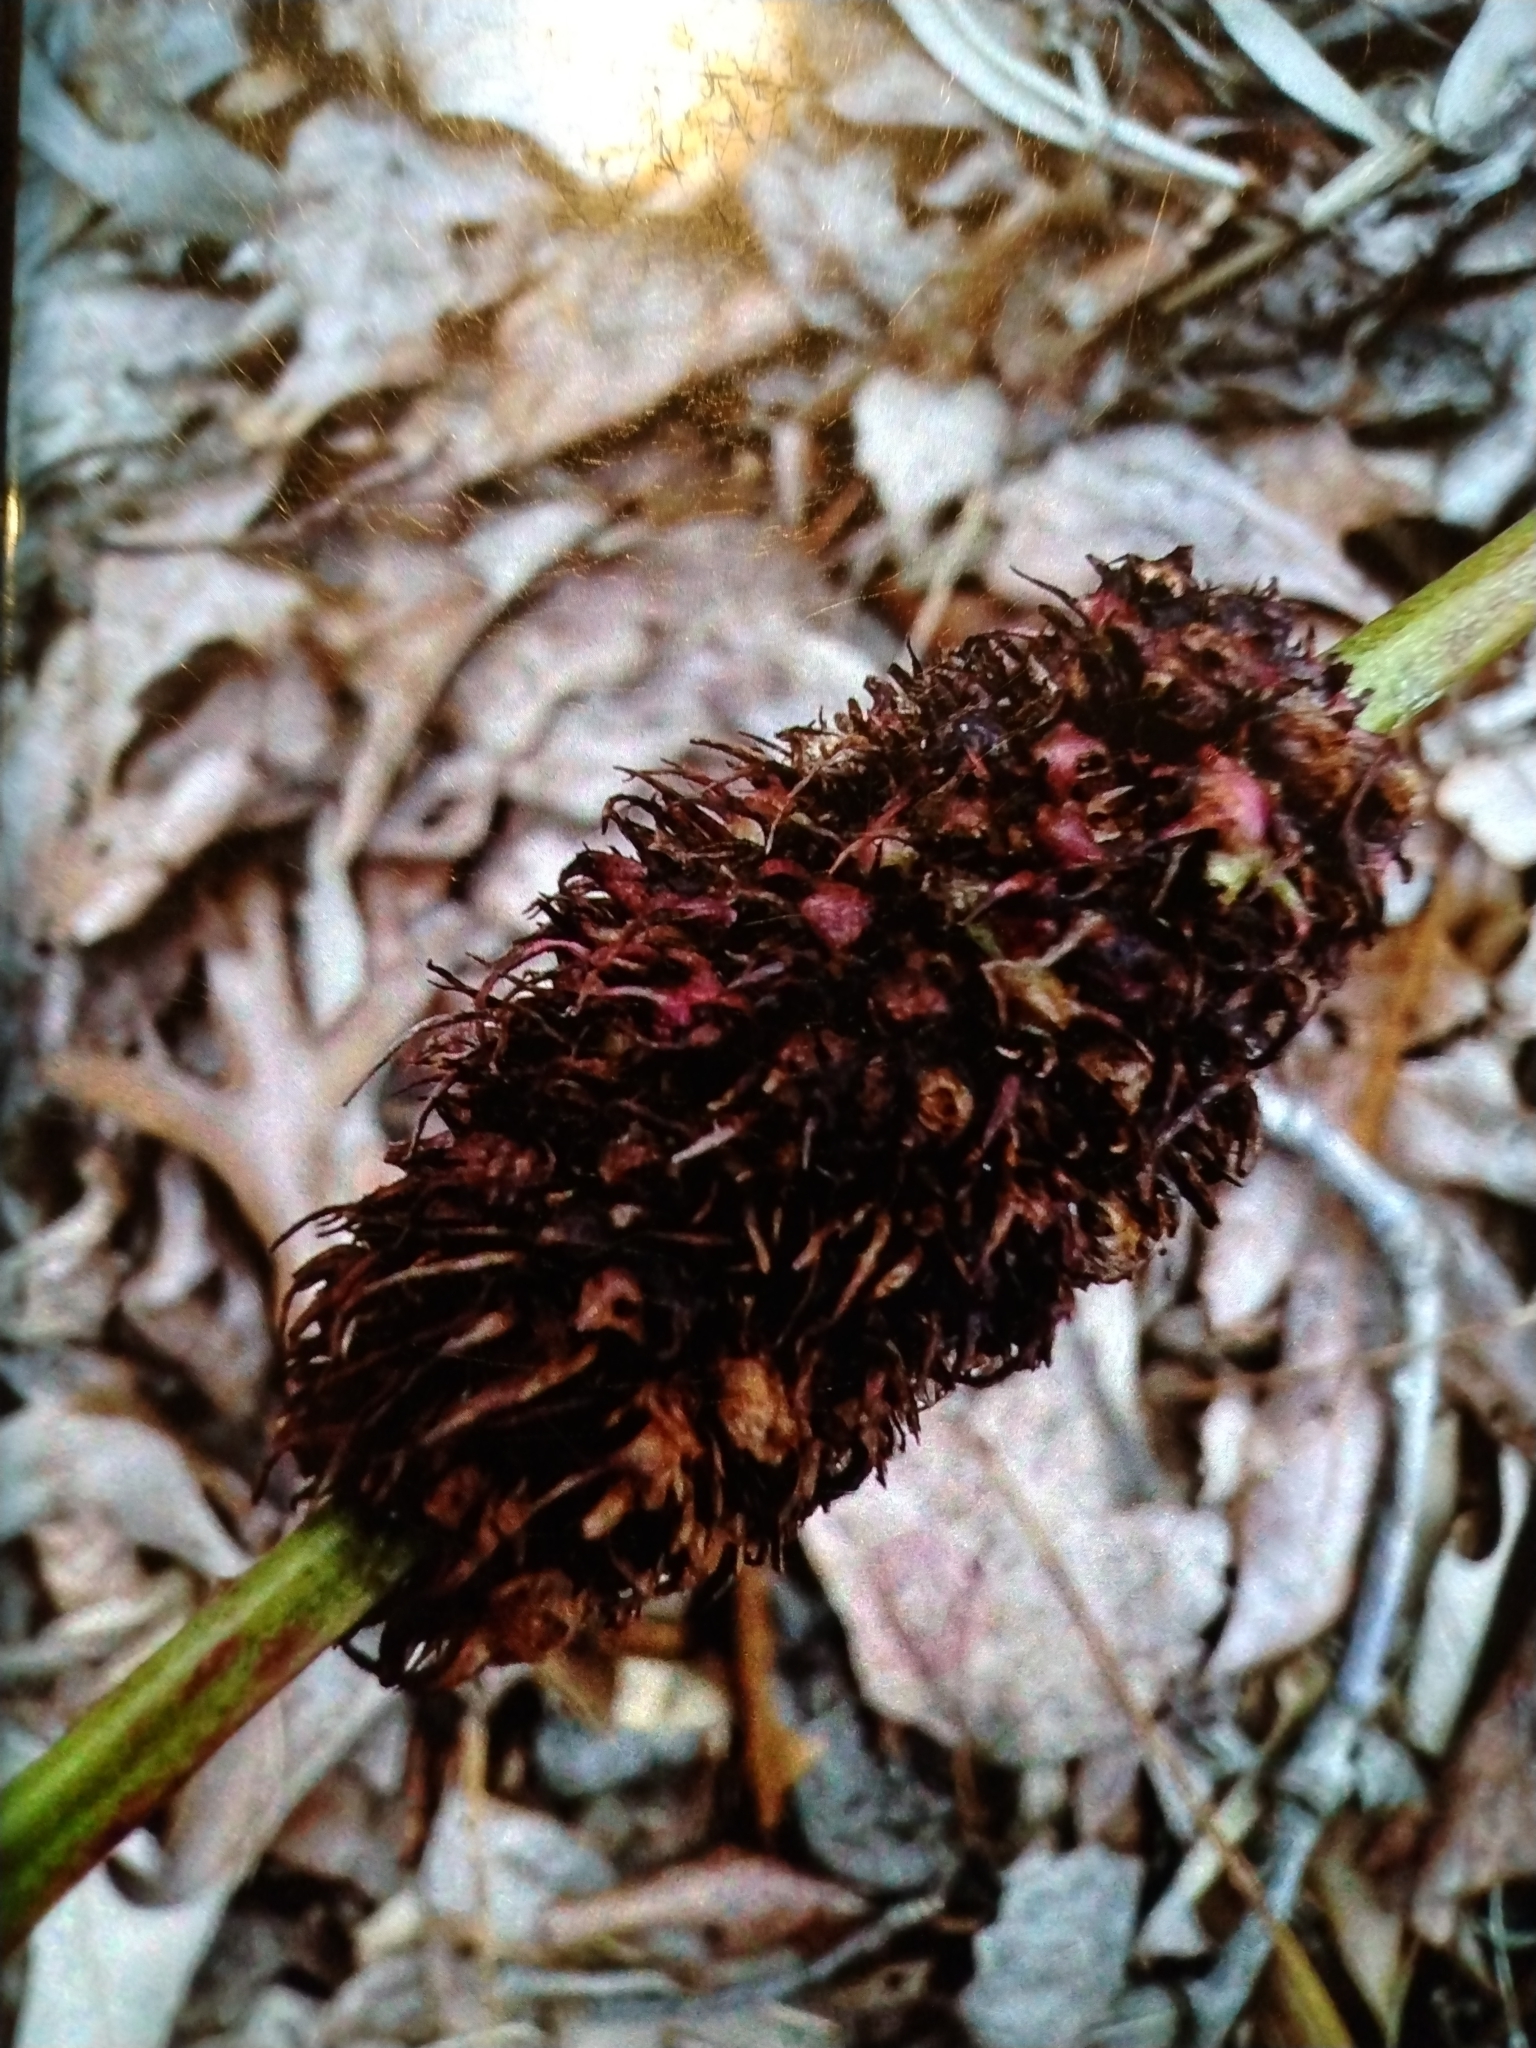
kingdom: Animalia
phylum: Arthropoda
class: Insecta
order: Hymenoptera
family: Cynipidae
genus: Diastrophus
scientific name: Diastrophus
